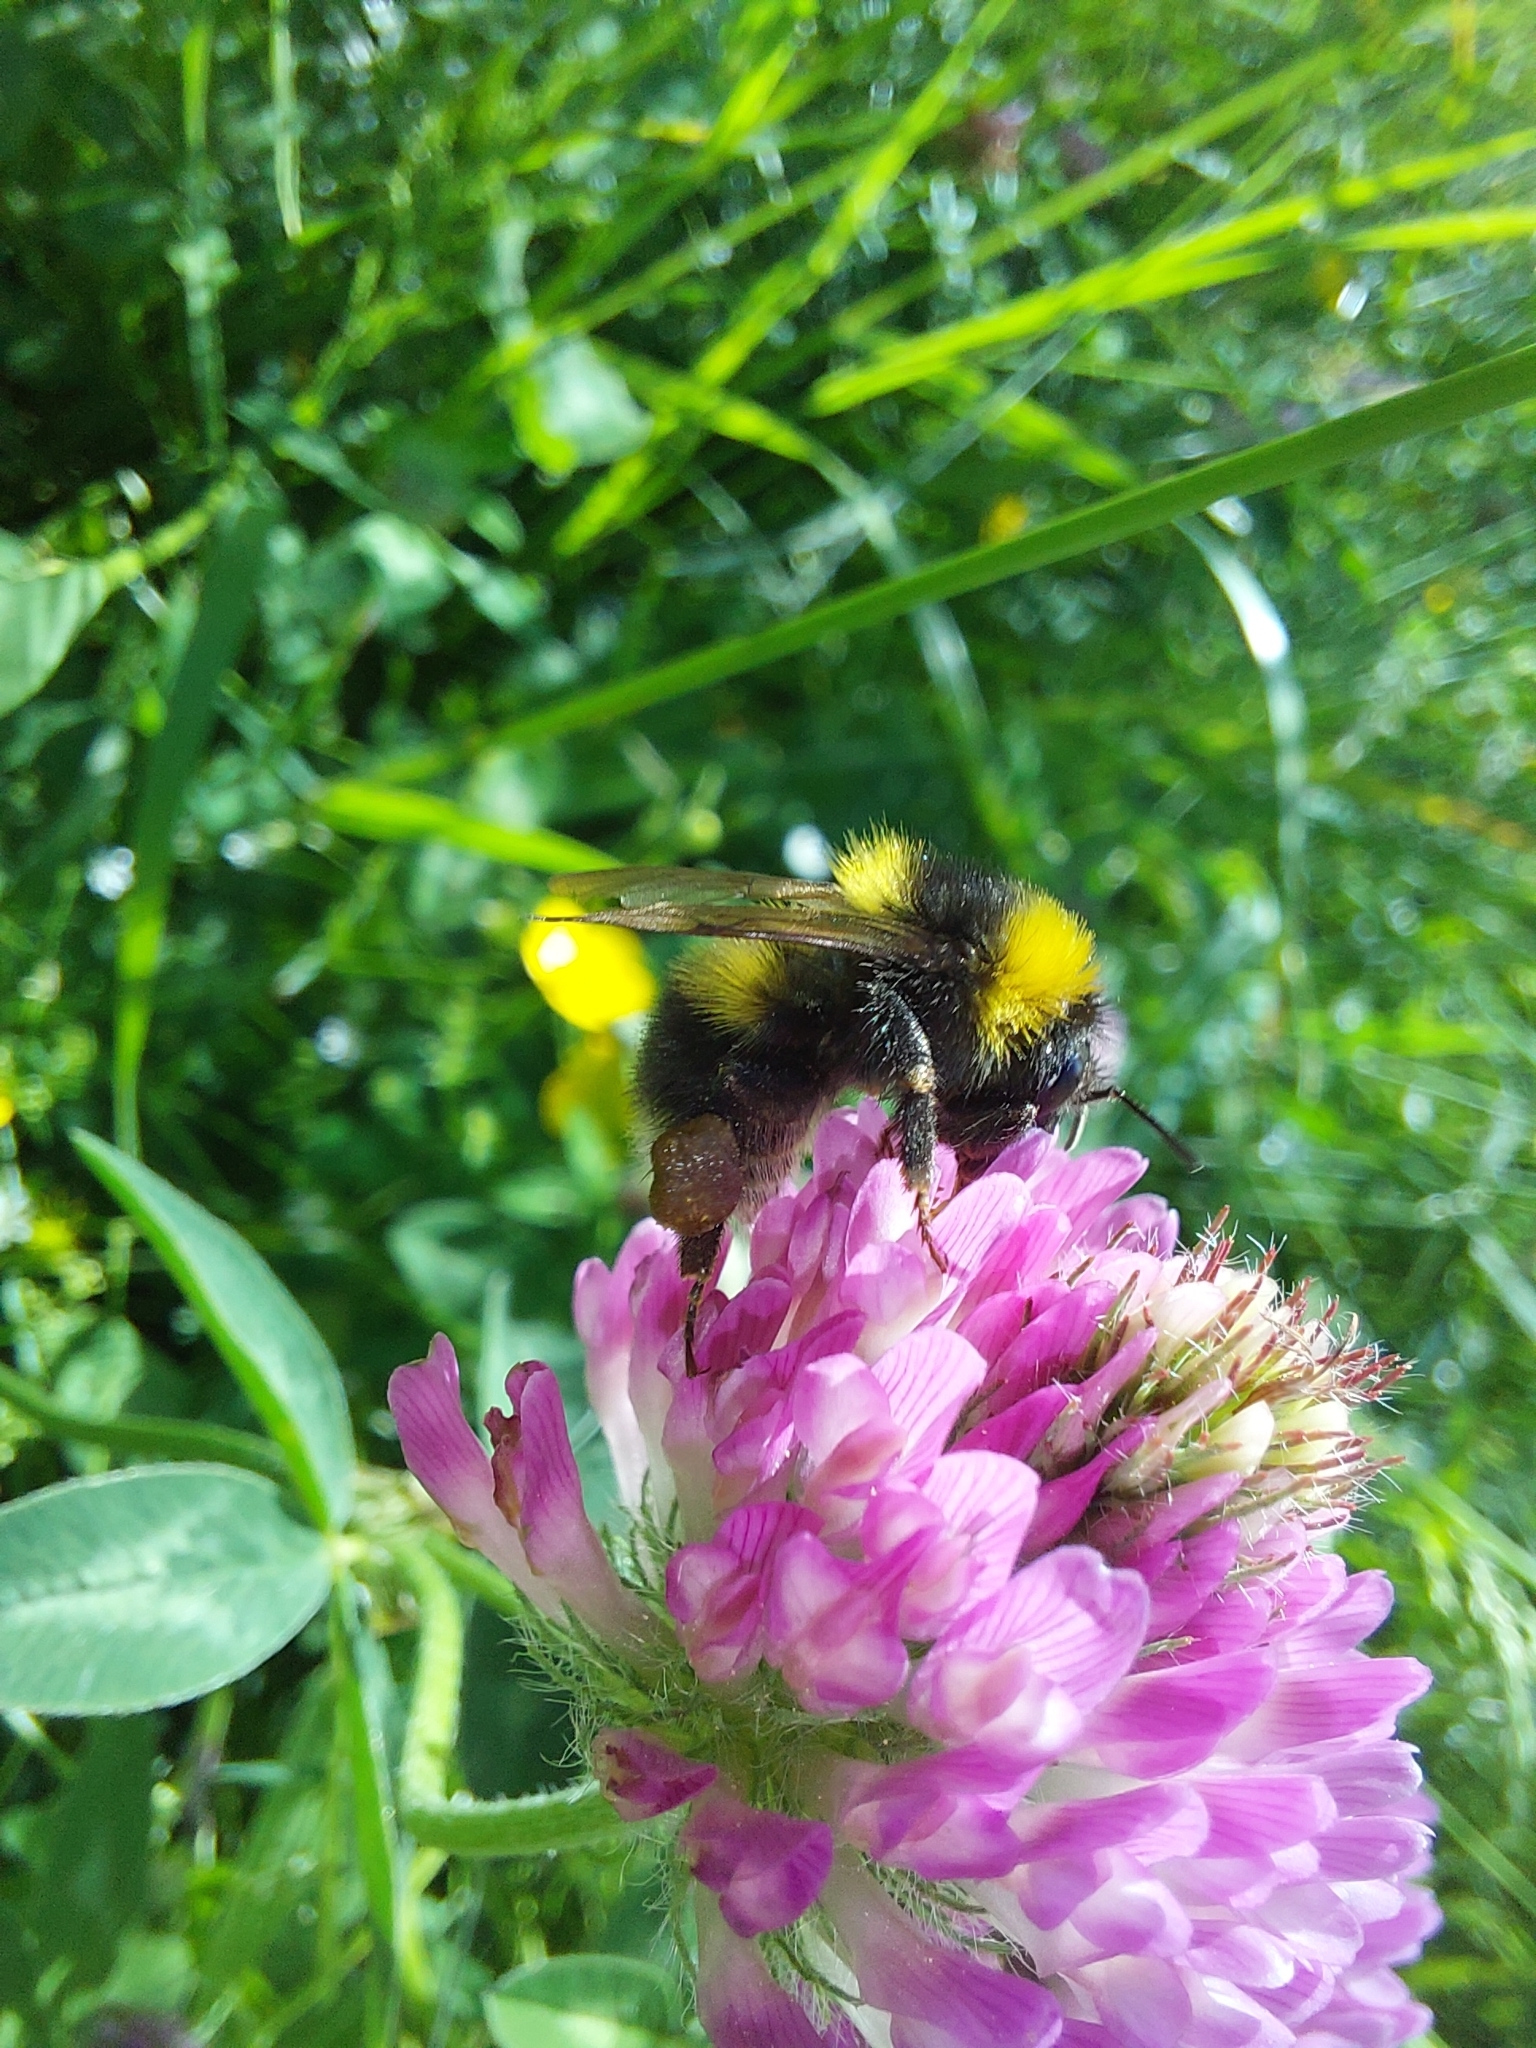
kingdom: Animalia
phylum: Arthropoda
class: Insecta
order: Hymenoptera
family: Apidae
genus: Bombus
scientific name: Bombus hortorum
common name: Garden bumblebee
